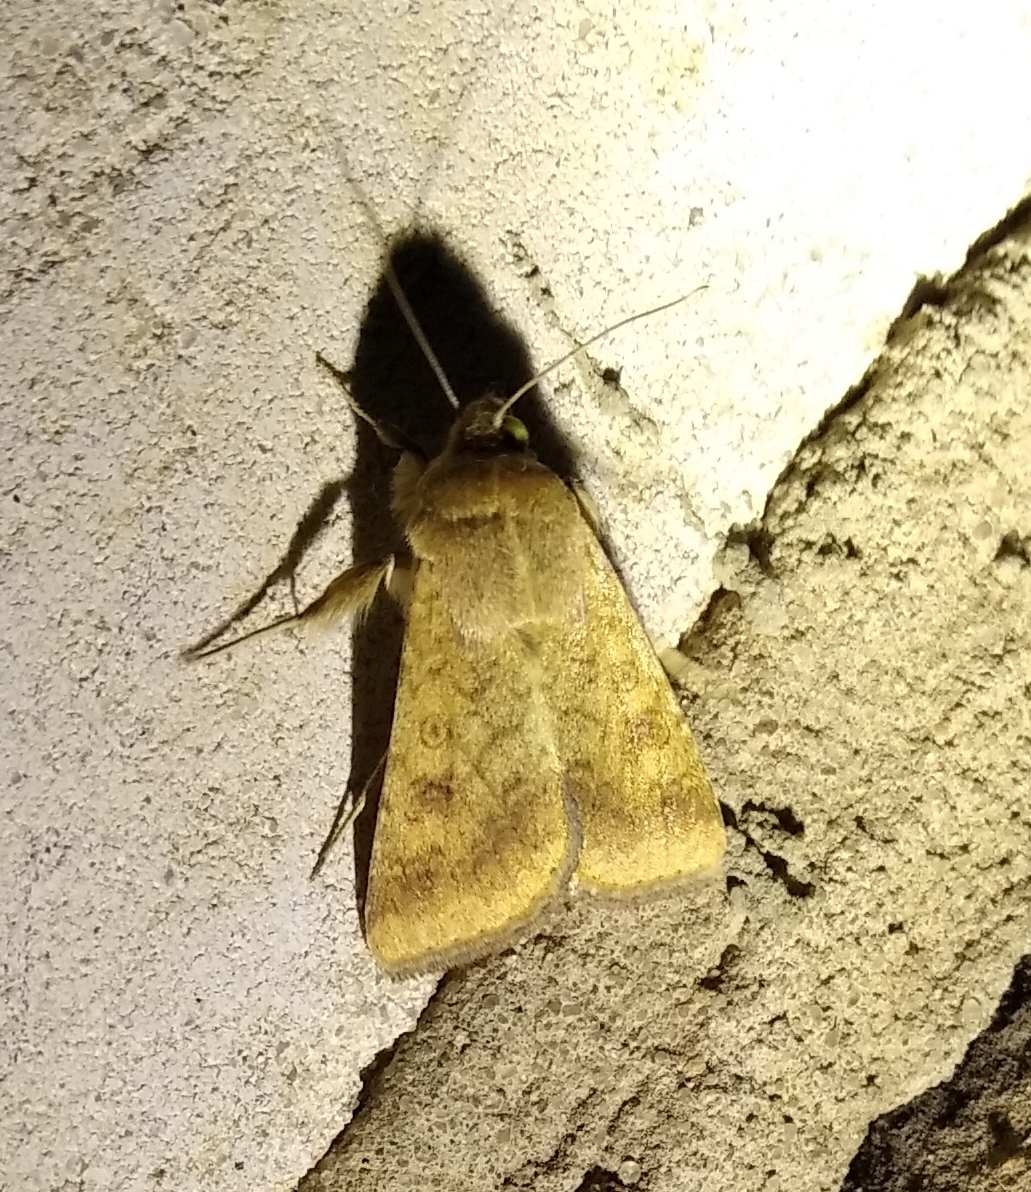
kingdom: Animalia
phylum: Arthropoda
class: Insecta
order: Lepidoptera
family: Noctuidae
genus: Helicoverpa
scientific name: Helicoverpa armigera
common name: Cotton bollworm
